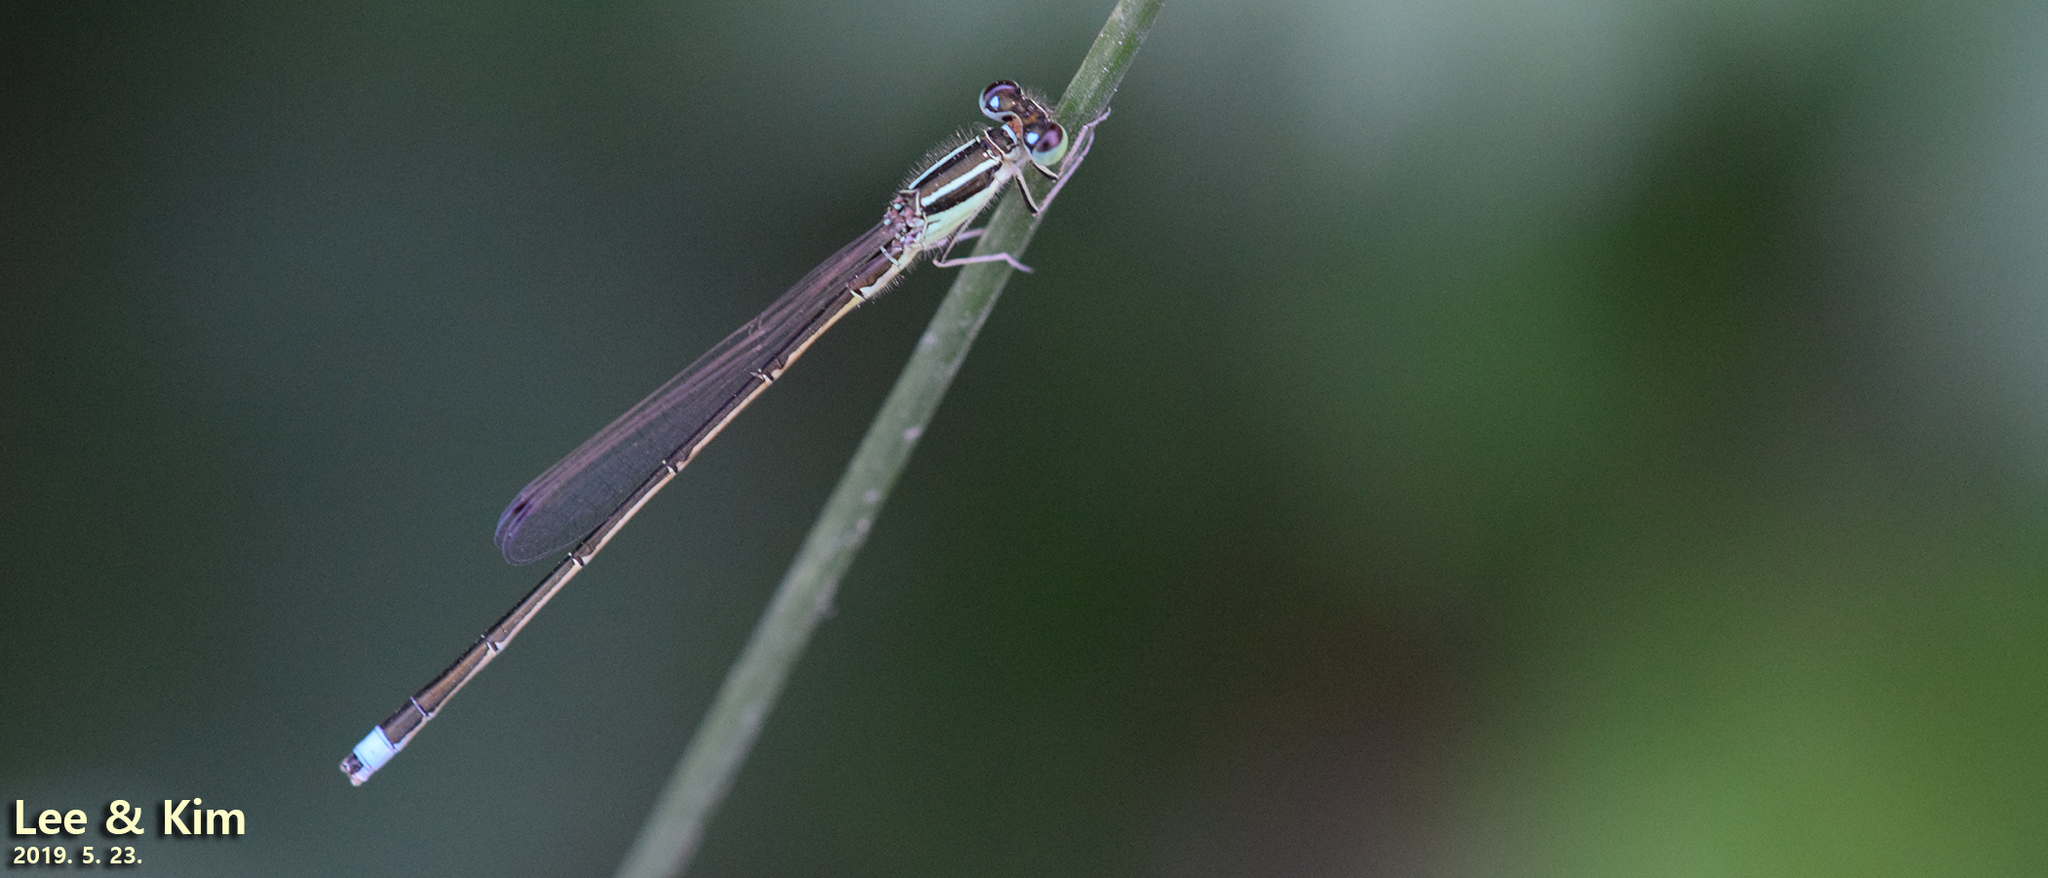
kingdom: Animalia
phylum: Arthropoda
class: Insecta
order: Odonata
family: Coenagrionidae
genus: Ischnura
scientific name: Ischnura asiatica
